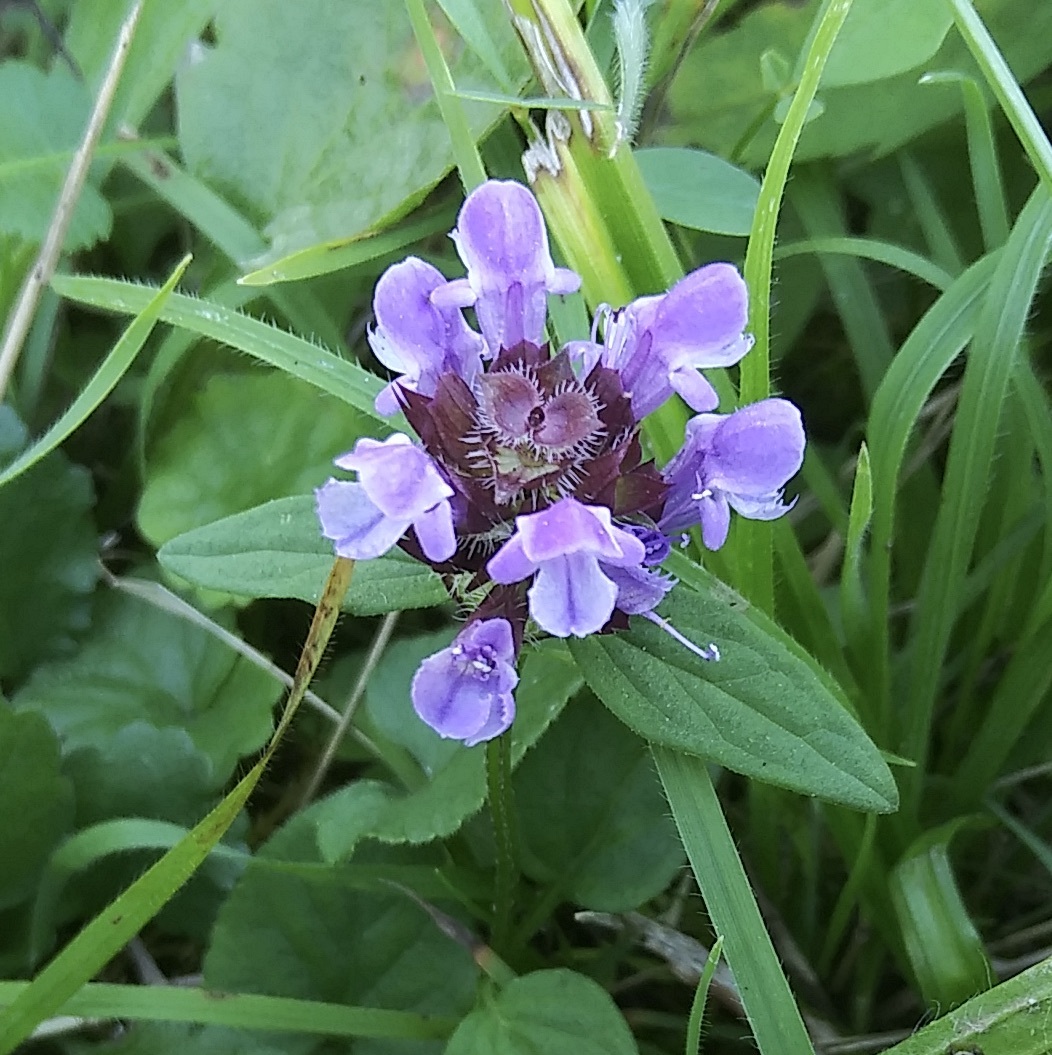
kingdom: Plantae
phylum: Tracheophyta
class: Magnoliopsida
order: Lamiales
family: Lamiaceae
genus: Prunella
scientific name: Prunella vulgaris
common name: Heal-all
